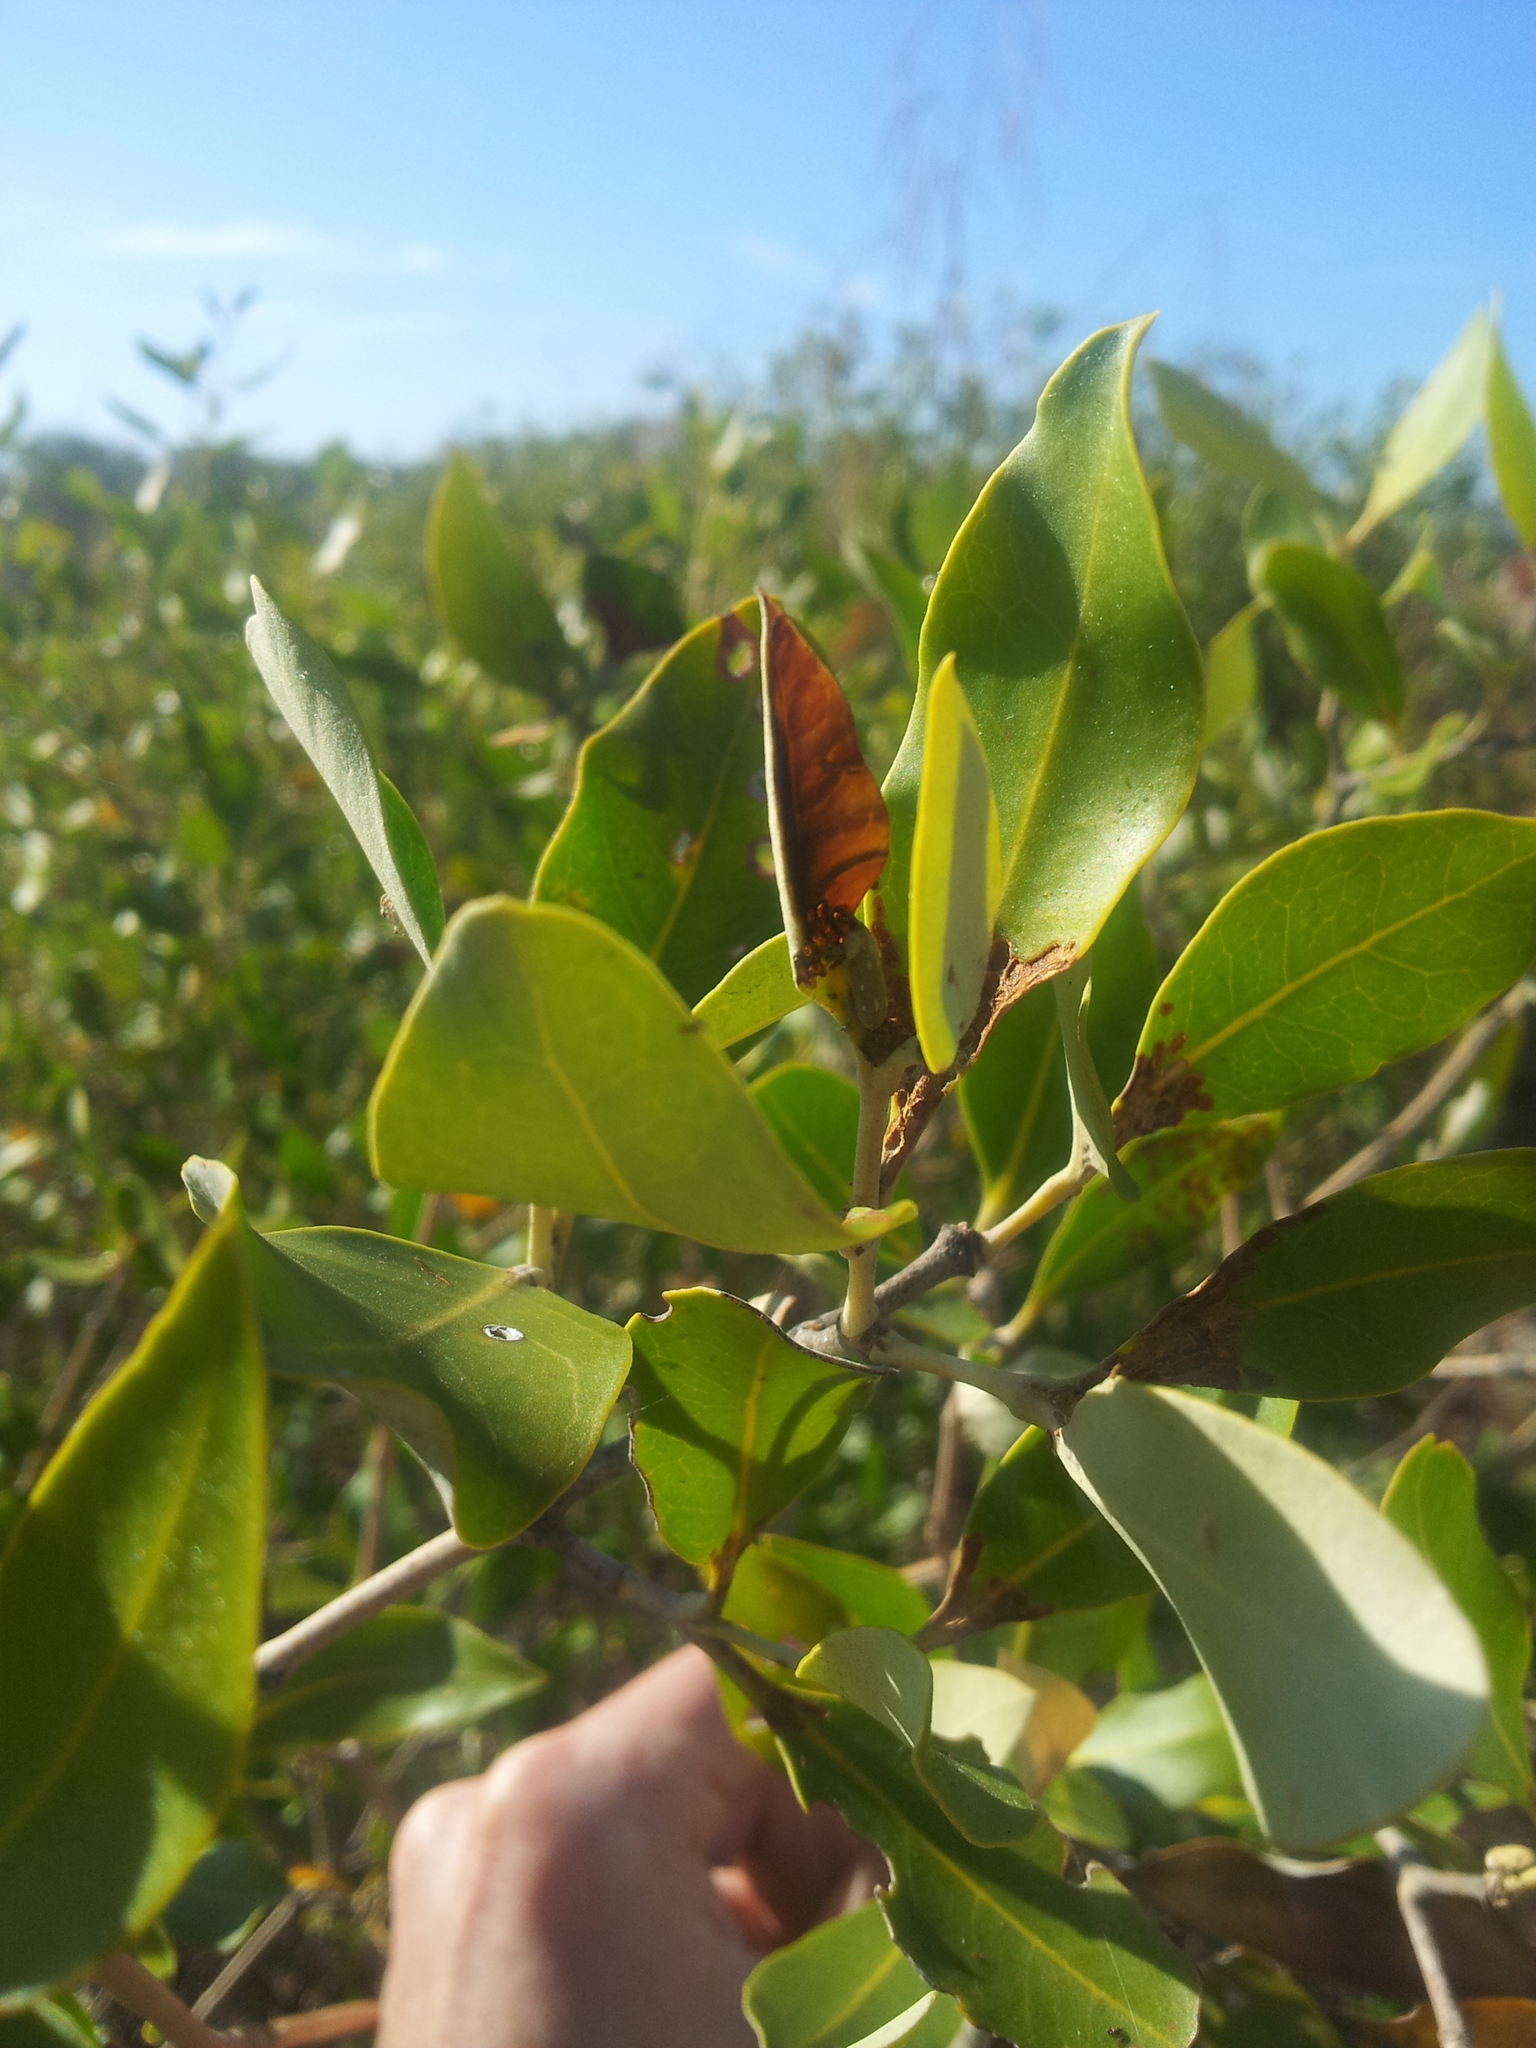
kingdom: Plantae
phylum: Tracheophyta
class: Magnoliopsida
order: Lamiales
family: Acanthaceae
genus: Avicennia
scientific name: Avicennia marina
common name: Gray mangrove
